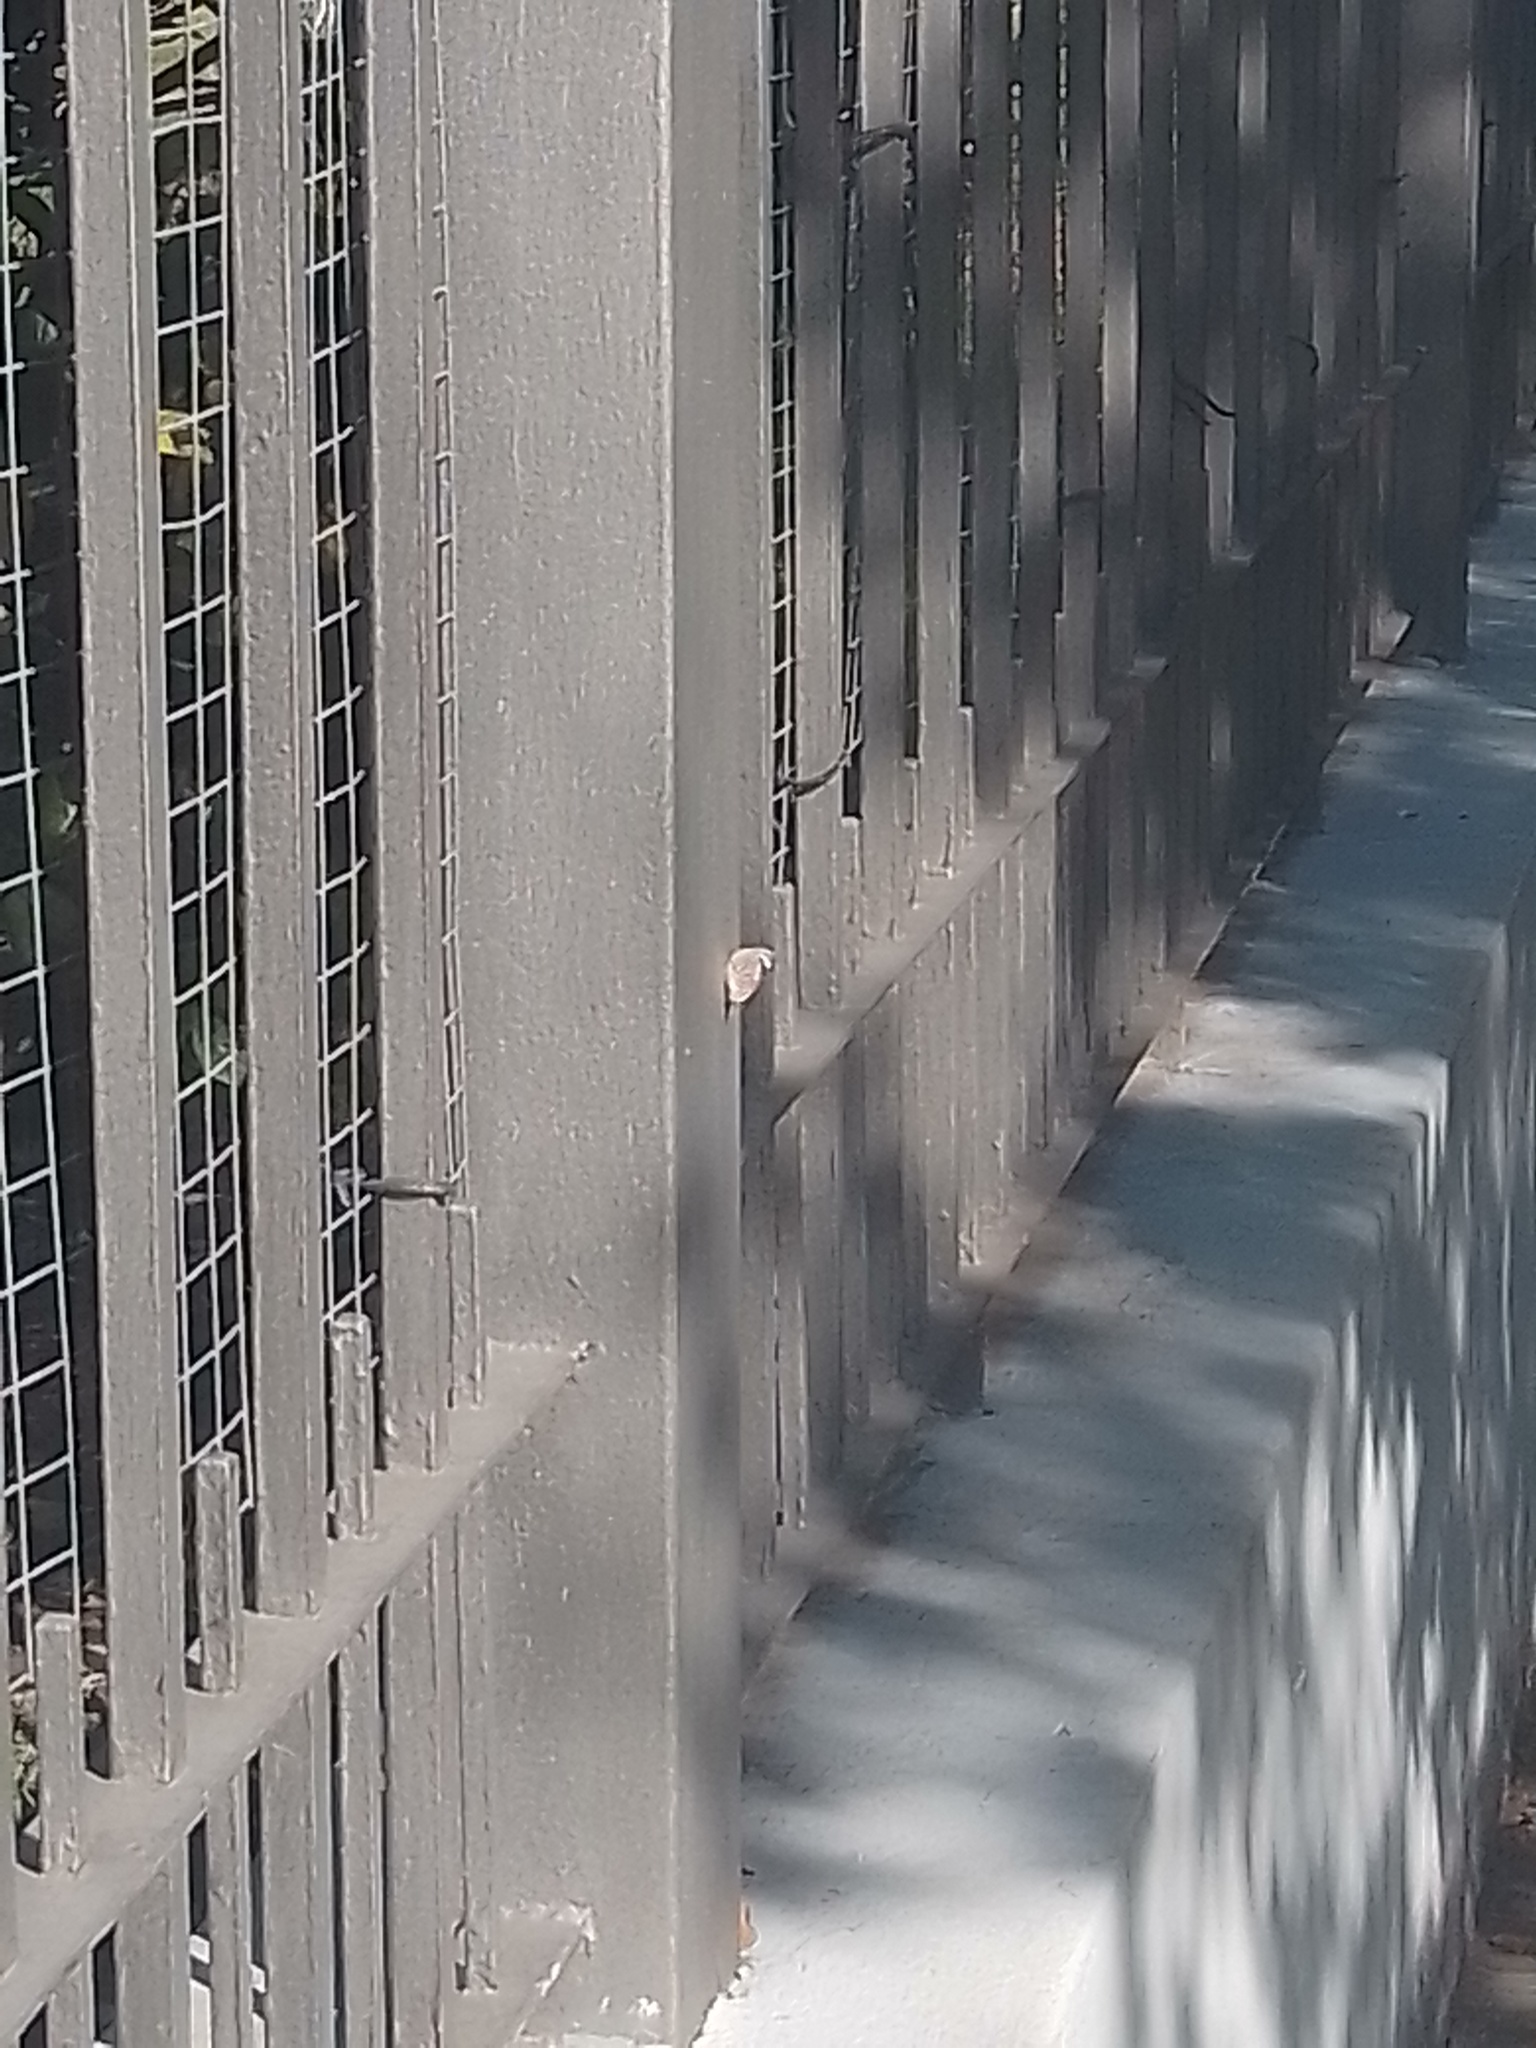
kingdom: Animalia
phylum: Arthropoda
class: Insecta
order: Lepidoptera
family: Nymphalidae
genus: Diaethria
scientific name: Diaethria candrena
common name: Number eighty
